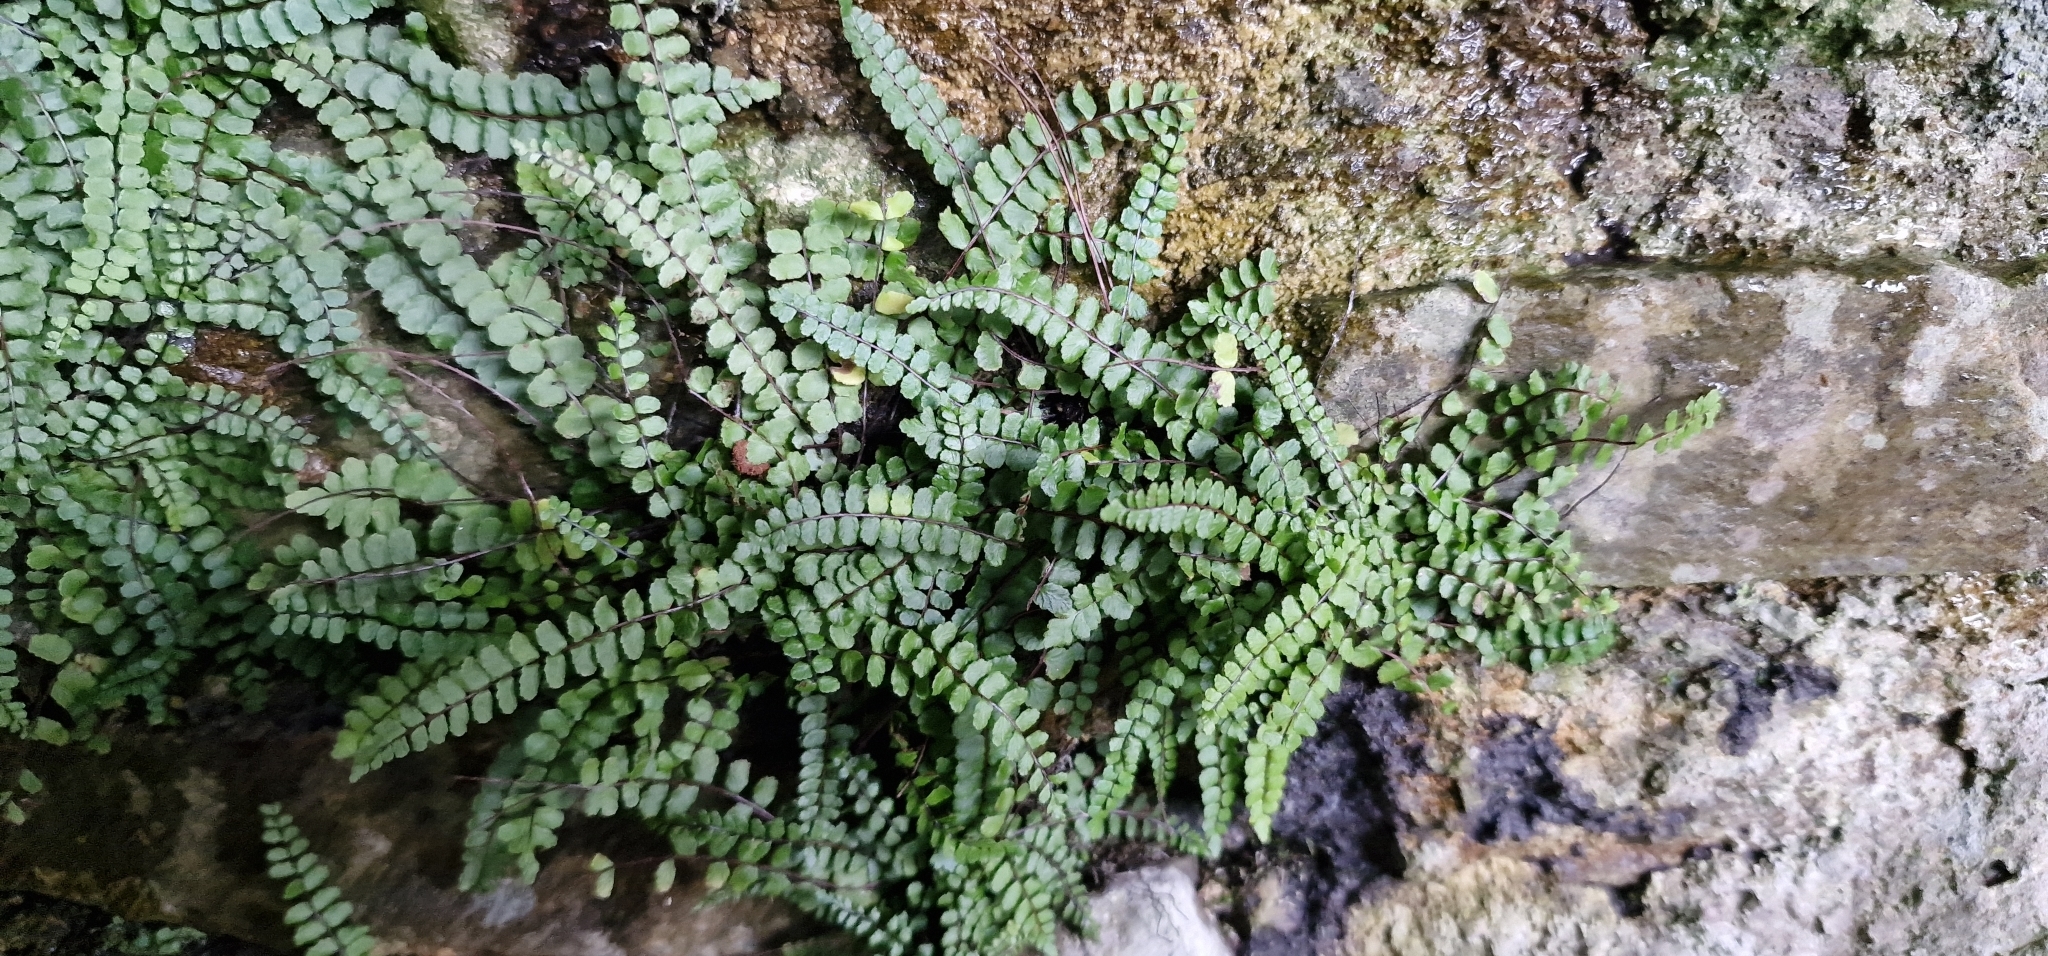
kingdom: Plantae
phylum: Tracheophyta
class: Polypodiopsida
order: Polypodiales
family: Aspleniaceae
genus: Asplenium
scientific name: Asplenium trichomanes
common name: Maidenhair spleenwort
